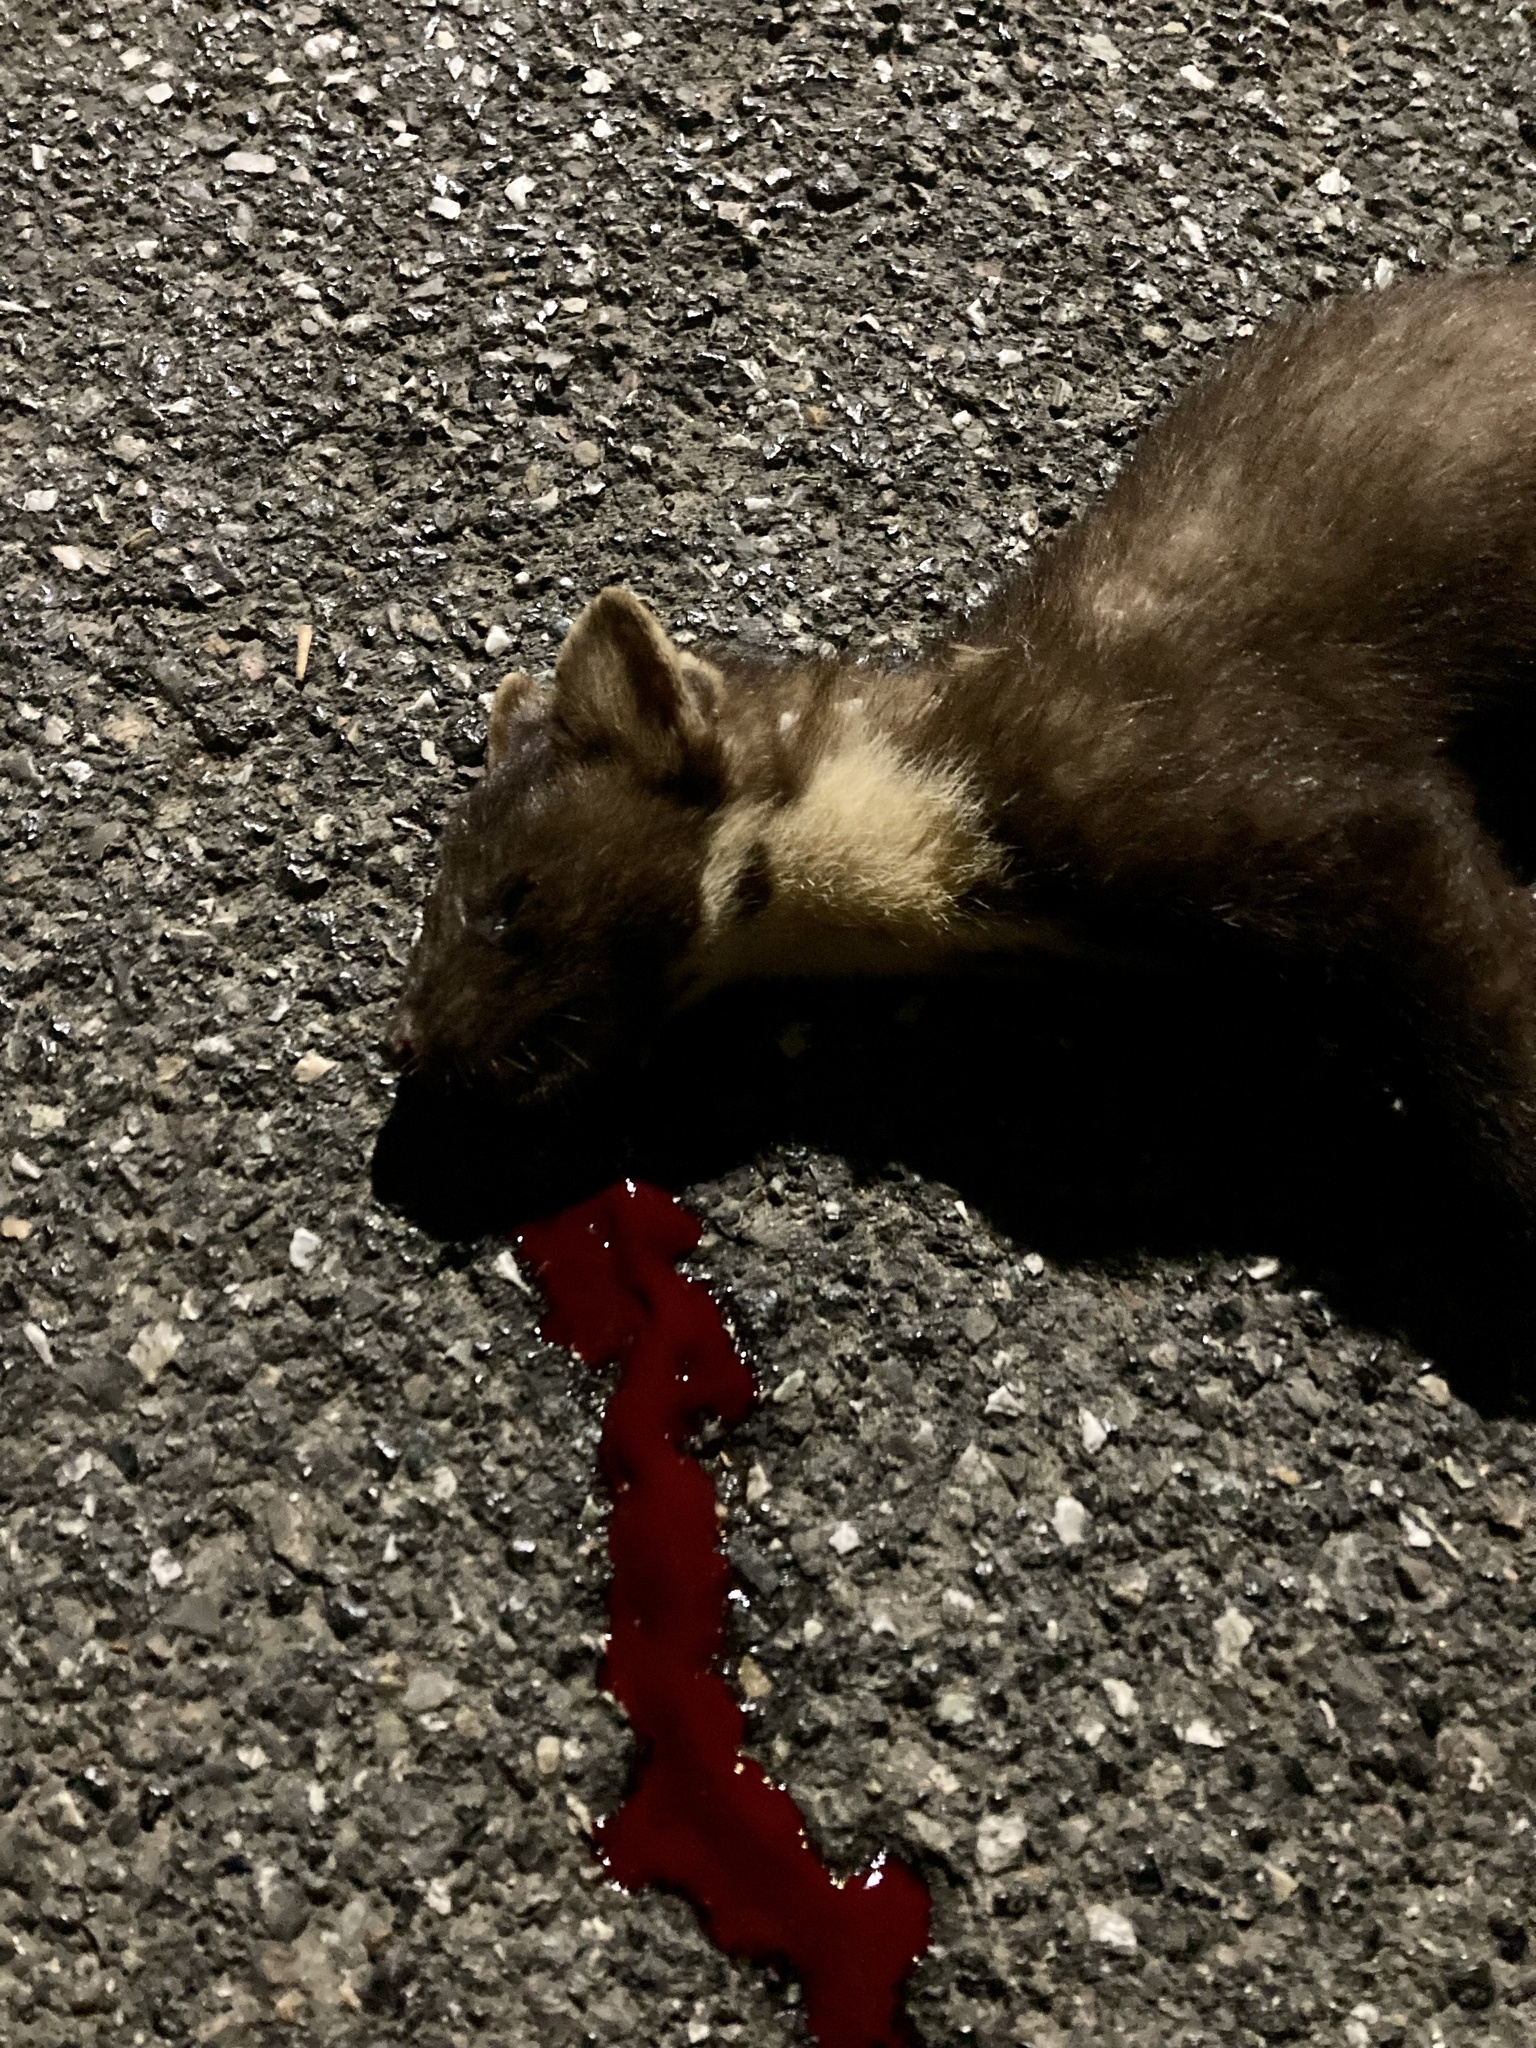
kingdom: Animalia
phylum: Chordata
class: Mammalia
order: Carnivora
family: Mustelidae
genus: Martes
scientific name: Martes martes
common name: European pine marten
